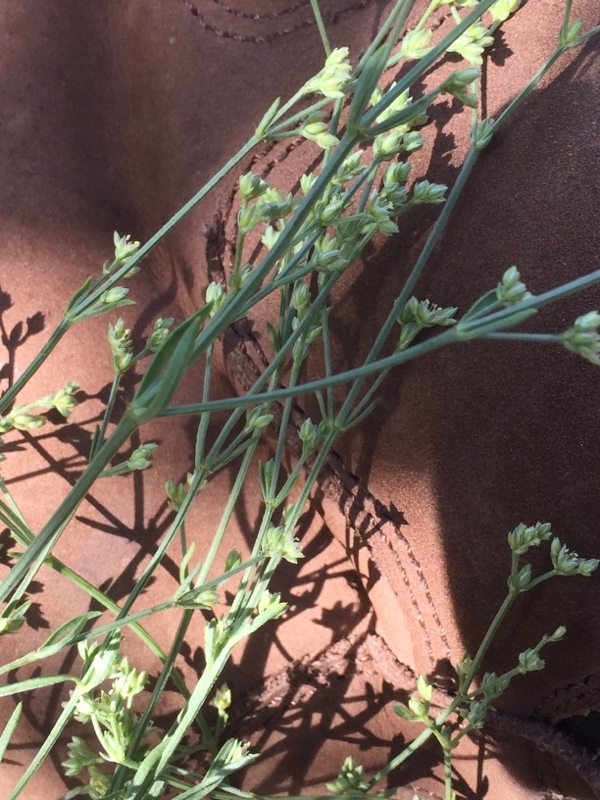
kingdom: Plantae
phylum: Tracheophyta
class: Magnoliopsida
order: Caryophyllales
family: Caryophyllaceae
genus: Ortegia
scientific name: Ortegia hispanica
